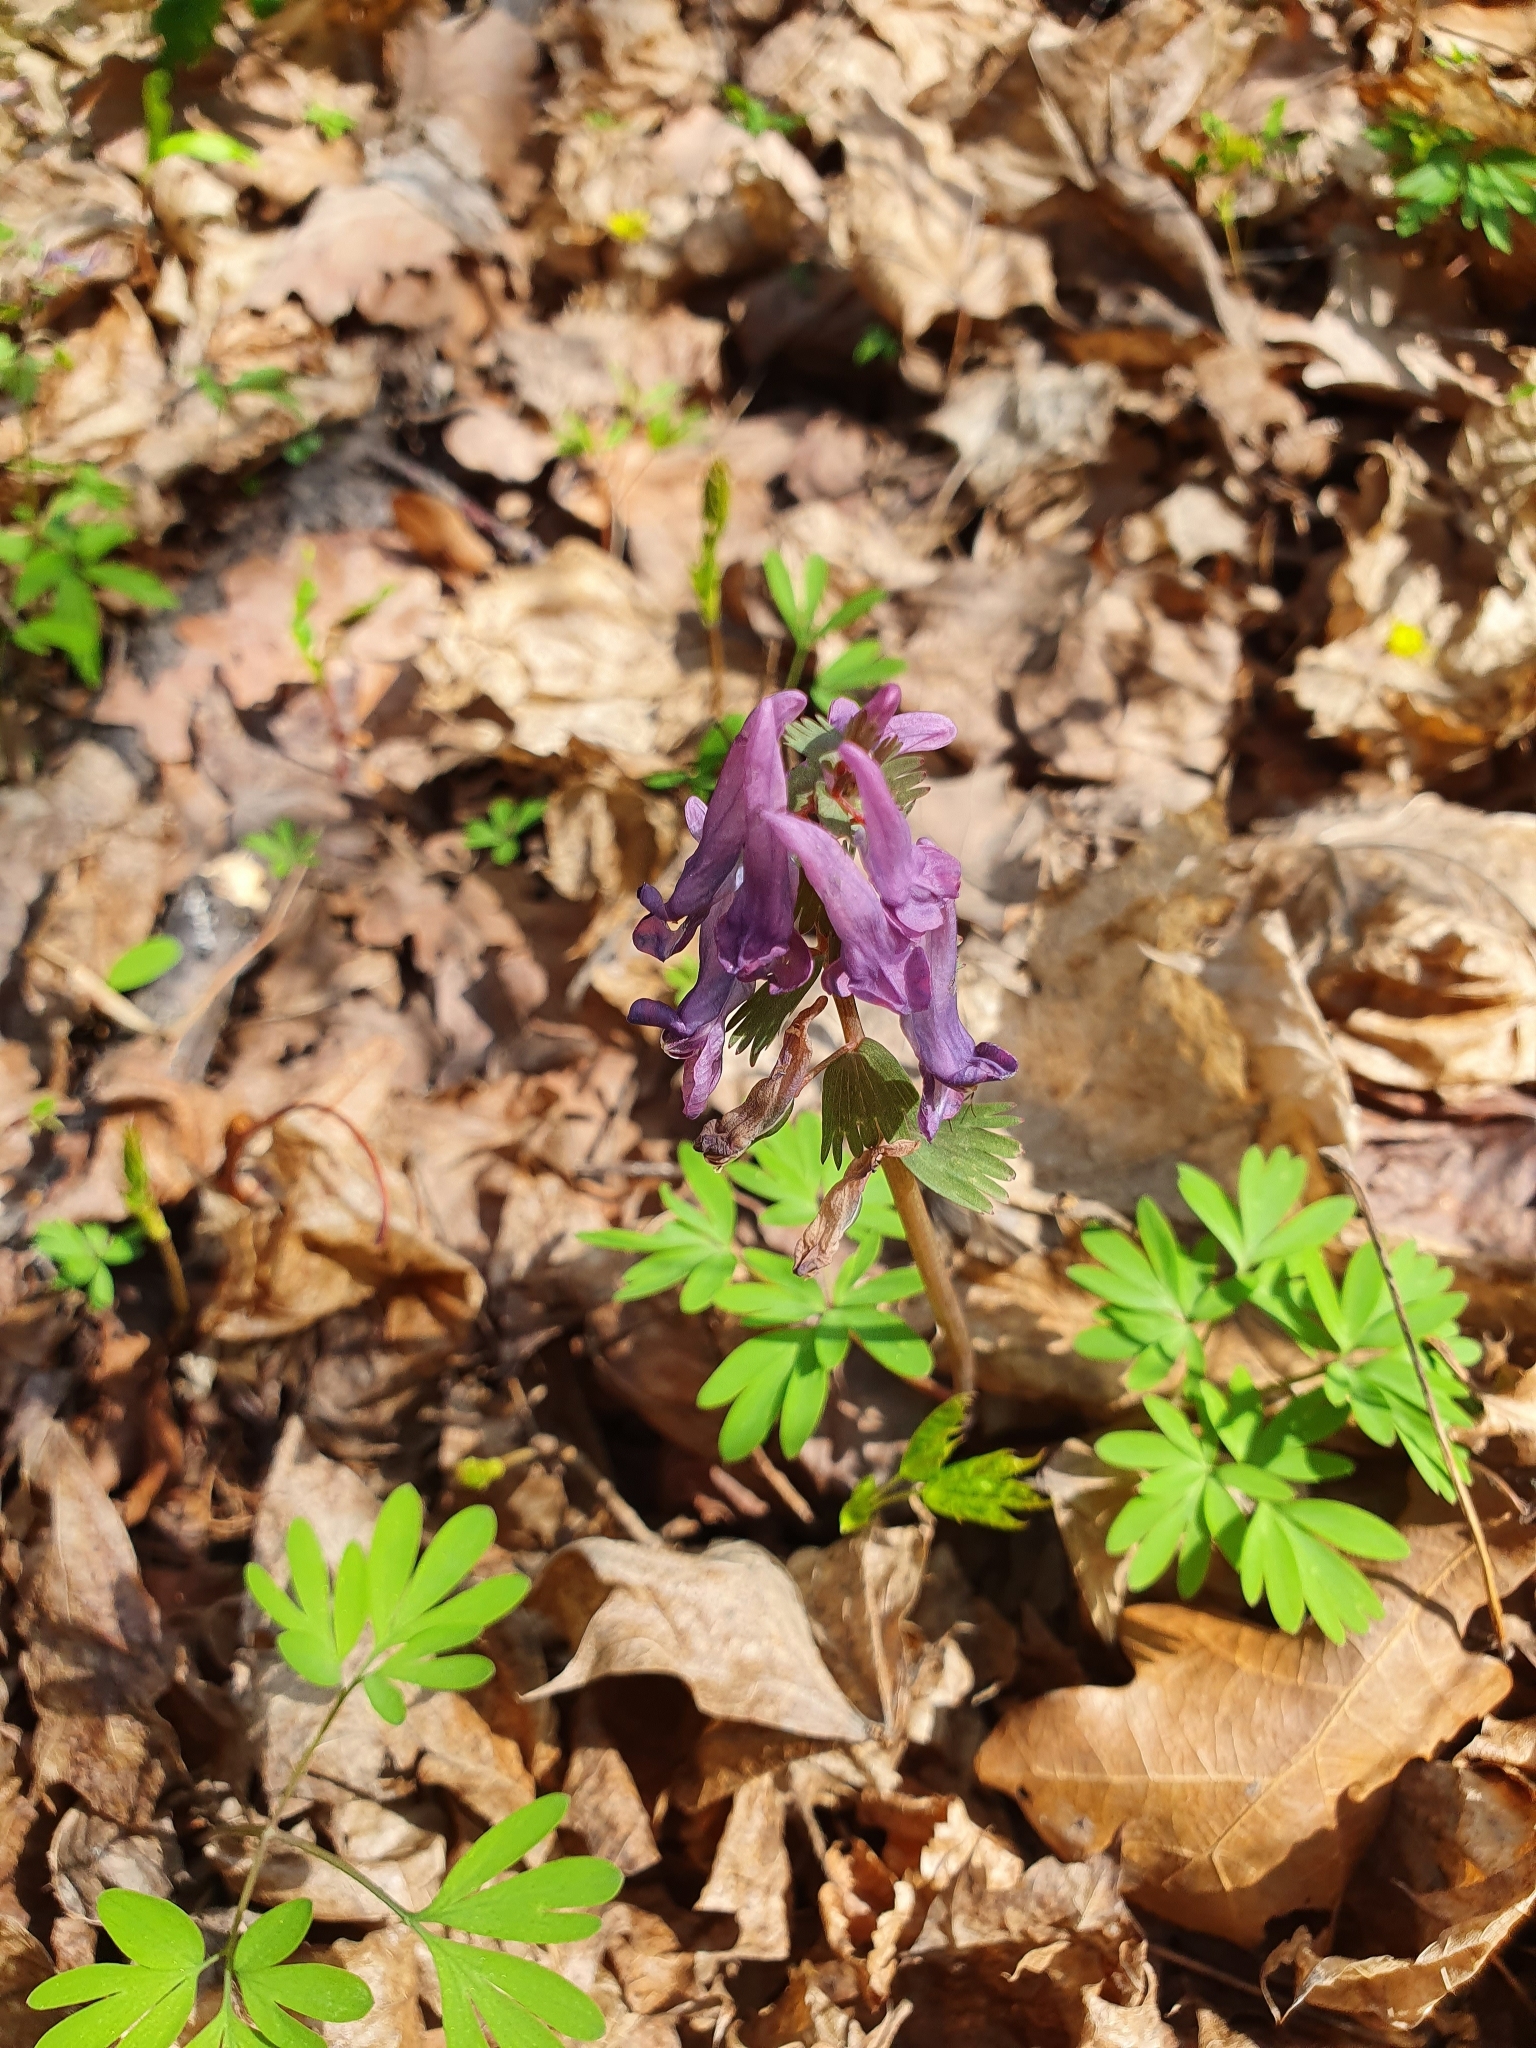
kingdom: Plantae
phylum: Tracheophyta
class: Magnoliopsida
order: Ranunculales
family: Papaveraceae
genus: Corydalis
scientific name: Corydalis solida
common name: Bird-in-a-bush
